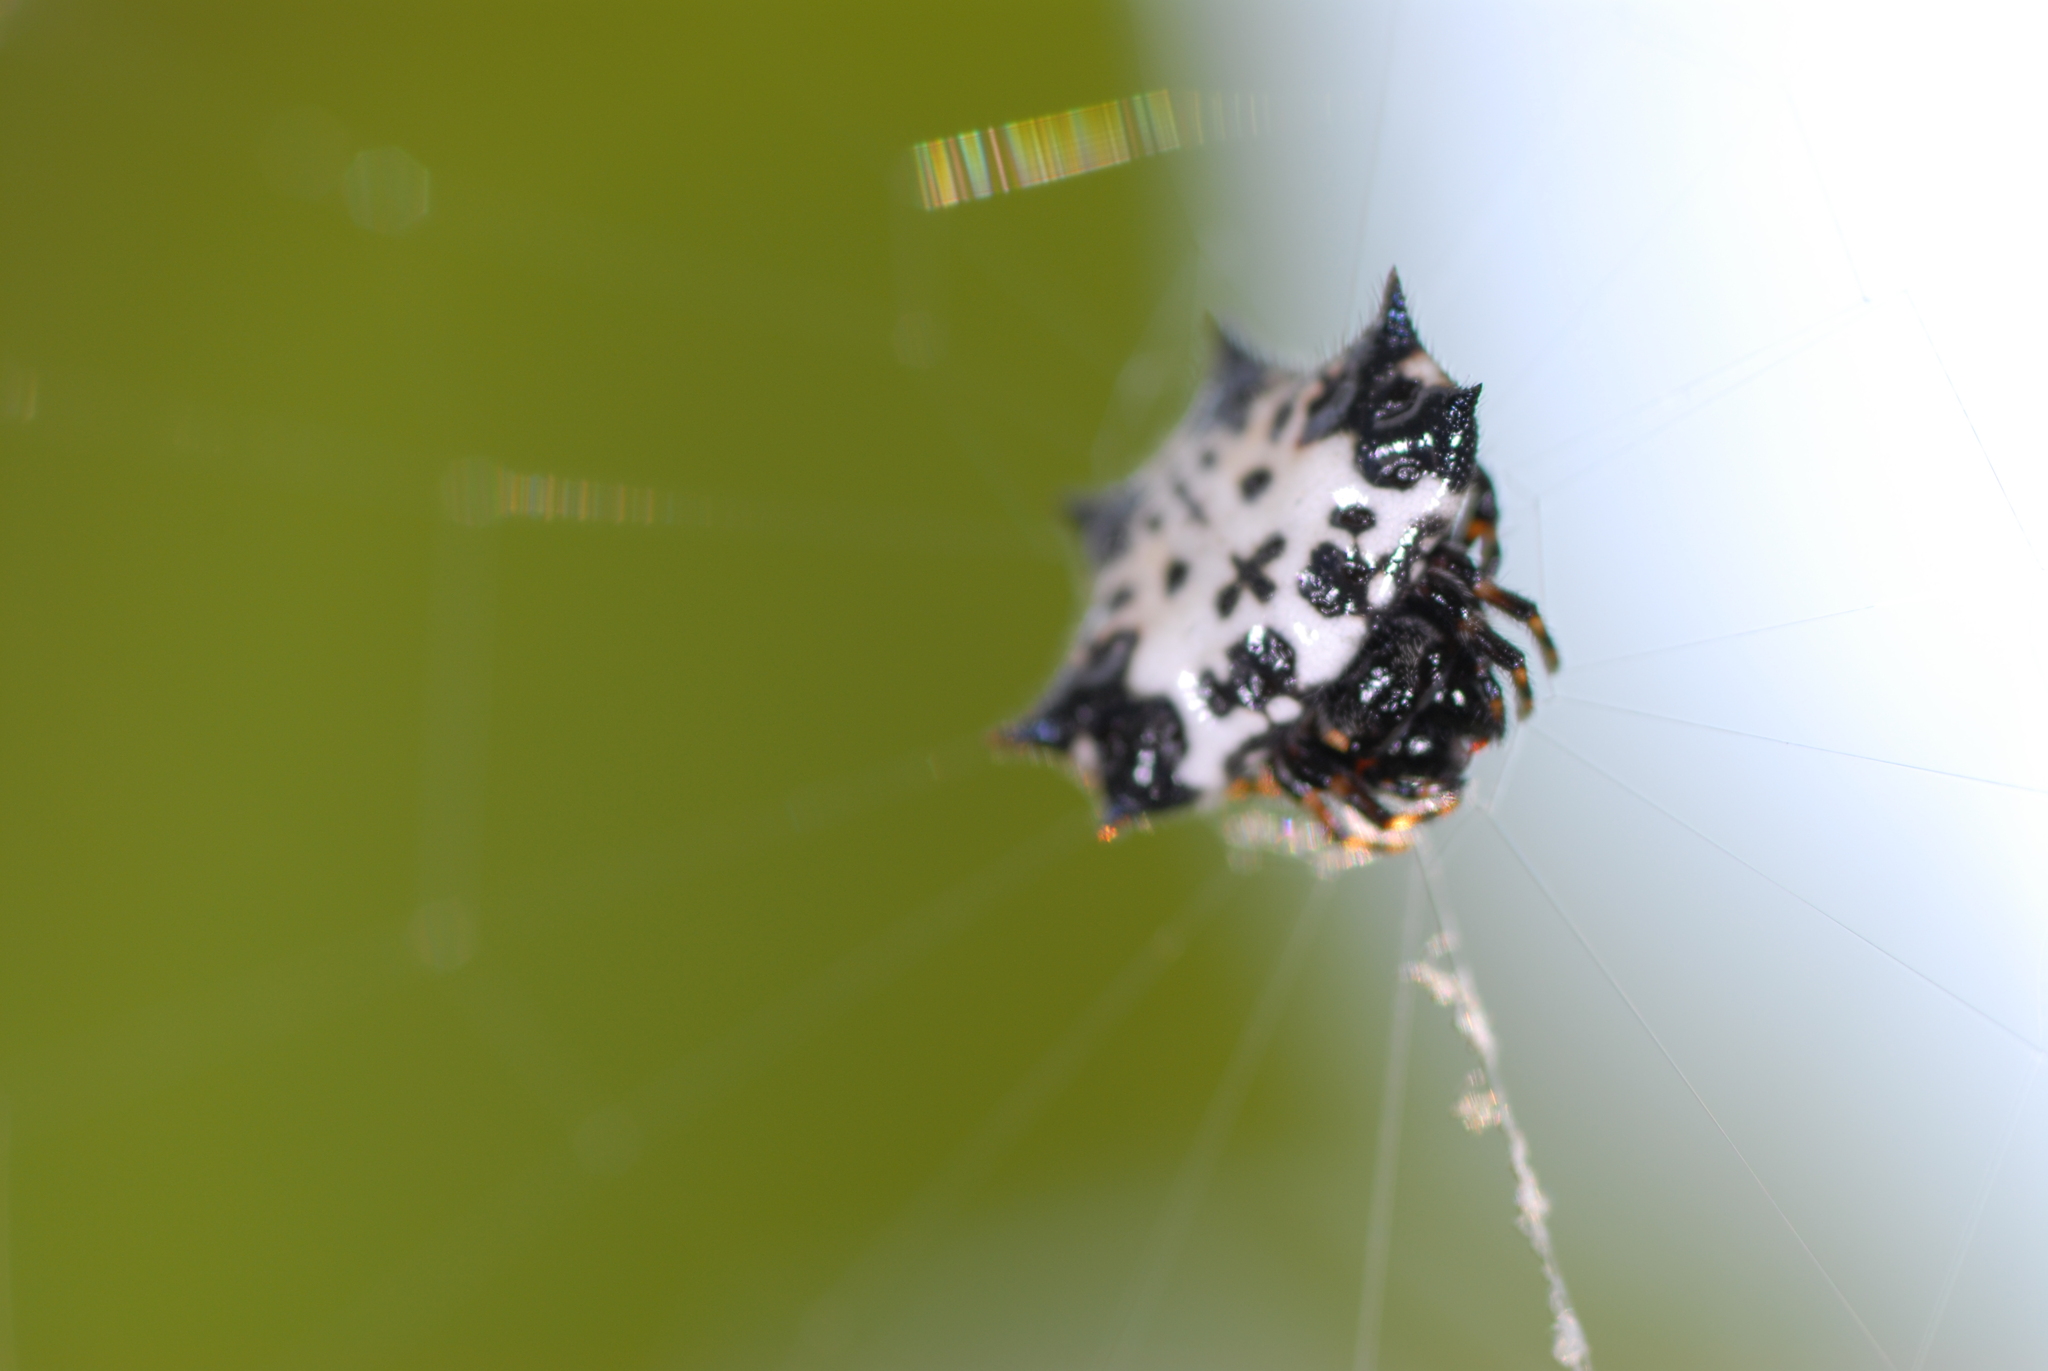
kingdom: Animalia
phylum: Arthropoda
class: Arachnida
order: Araneae
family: Araneidae
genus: Gasteracantha
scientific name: Gasteracantha kuhli
